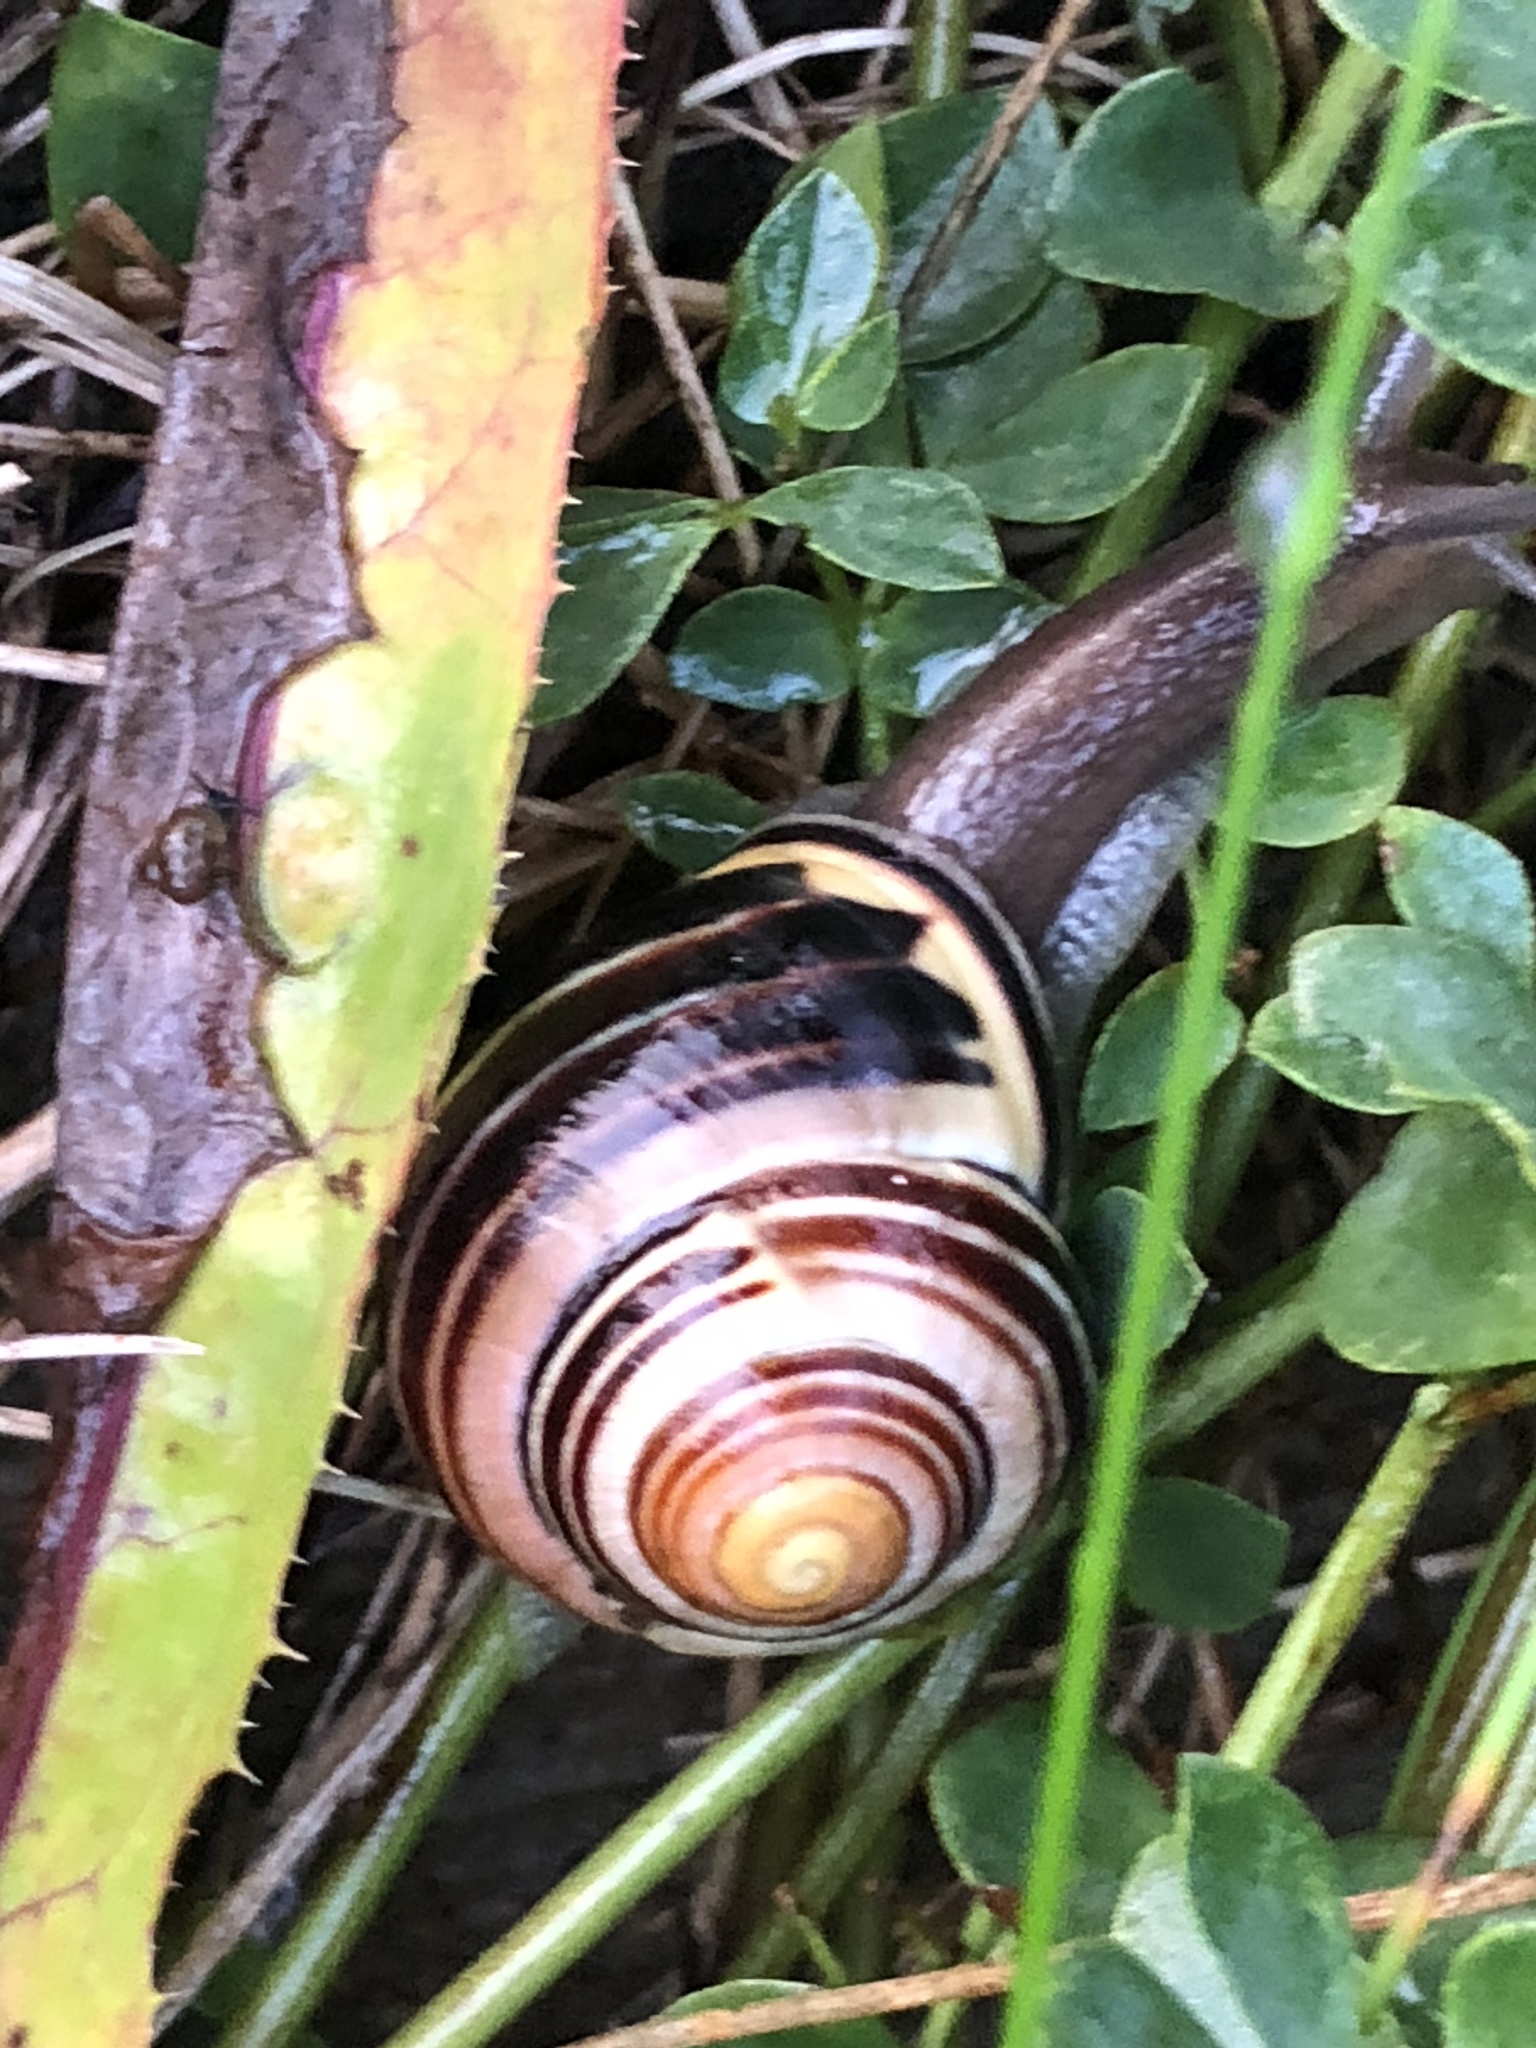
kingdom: Animalia
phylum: Mollusca
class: Gastropoda
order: Stylommatophora
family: Helicidae
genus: Cepaea
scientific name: Cepaea nemoralis
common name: Grovesnail
